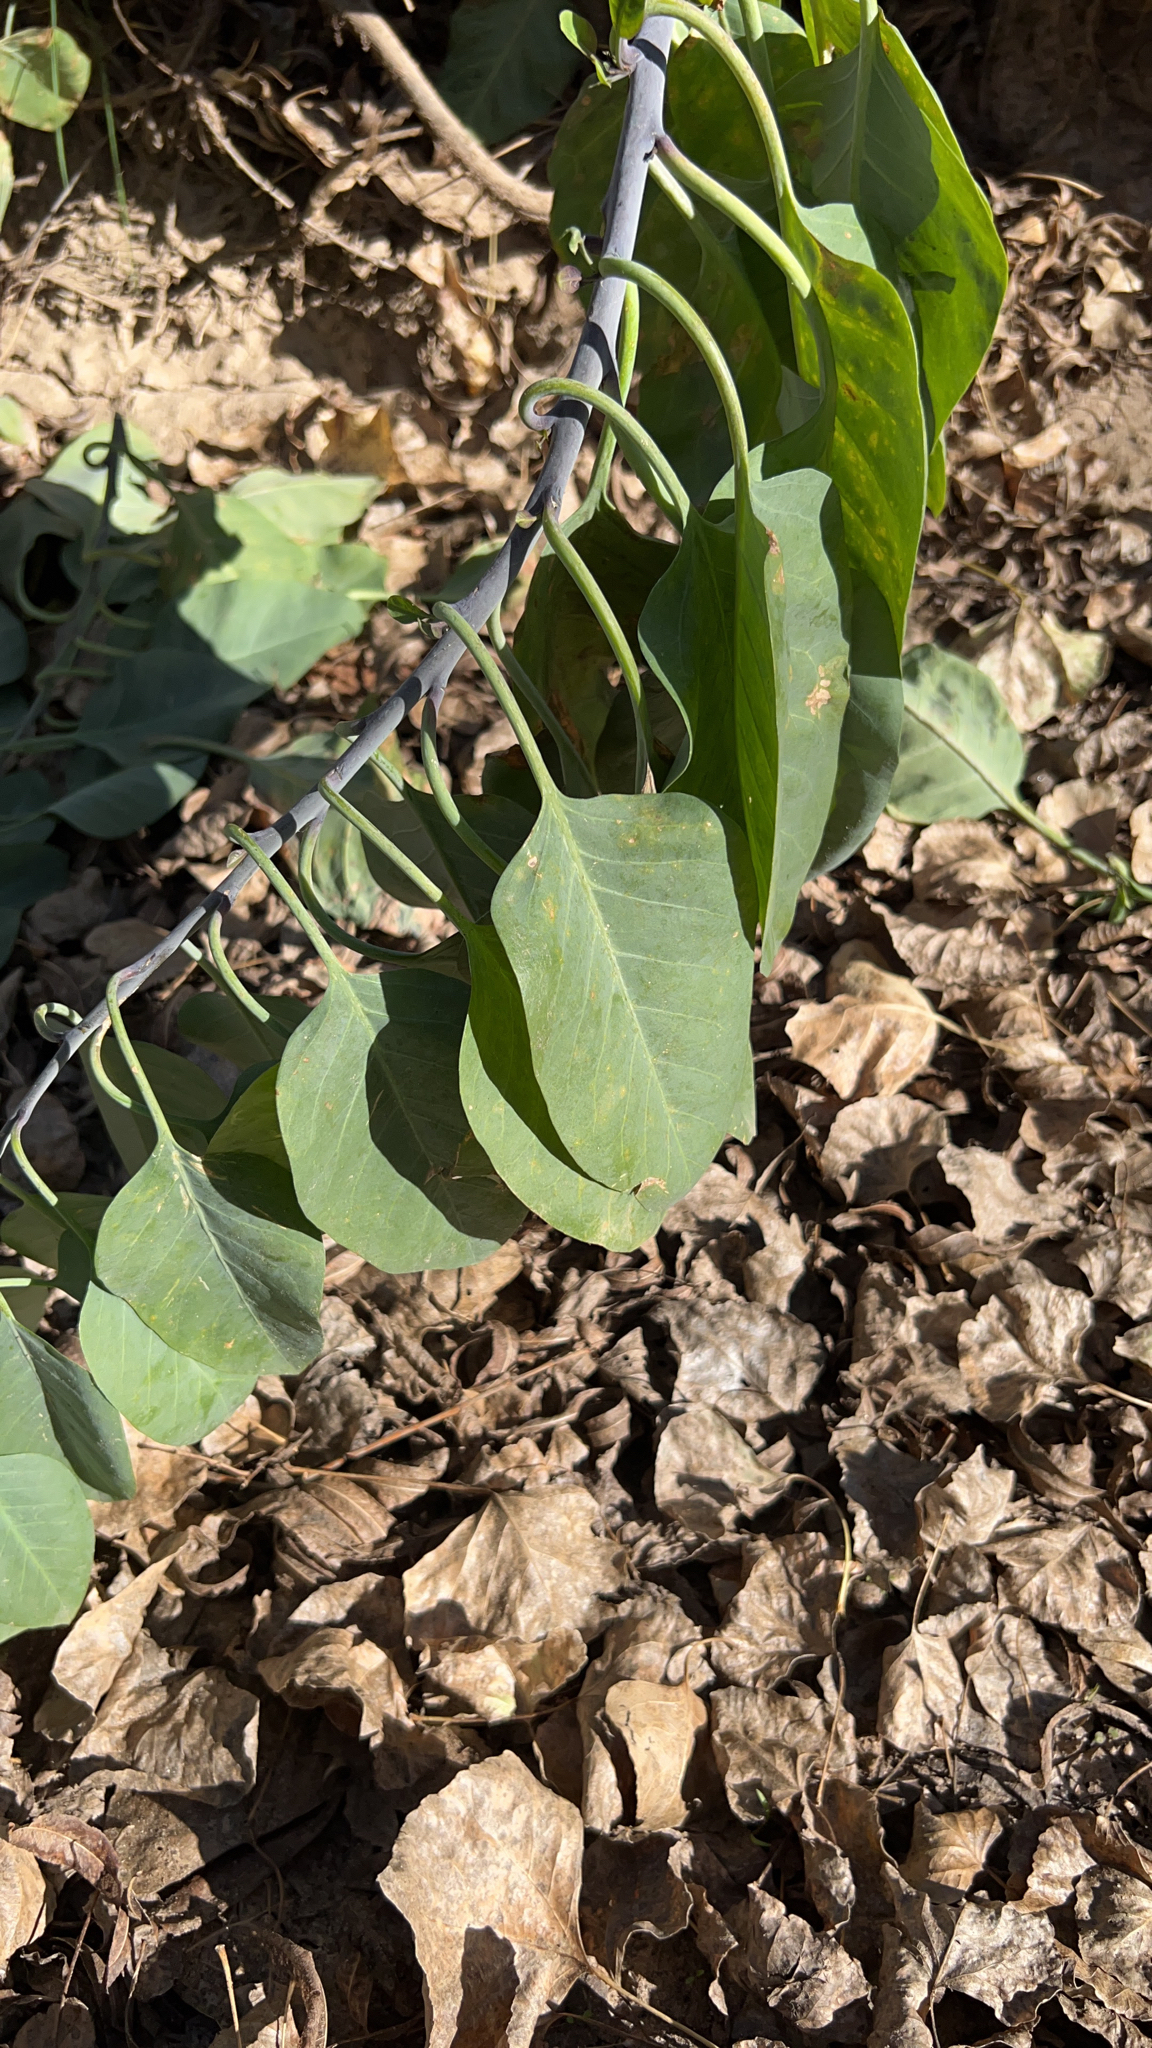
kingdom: Plantae
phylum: Tracheophyta
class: Magnoliopsida
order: Solanales
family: Solanaceae
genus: Nicotiana
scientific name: Nicotiana glauca
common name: Tree tobacco
